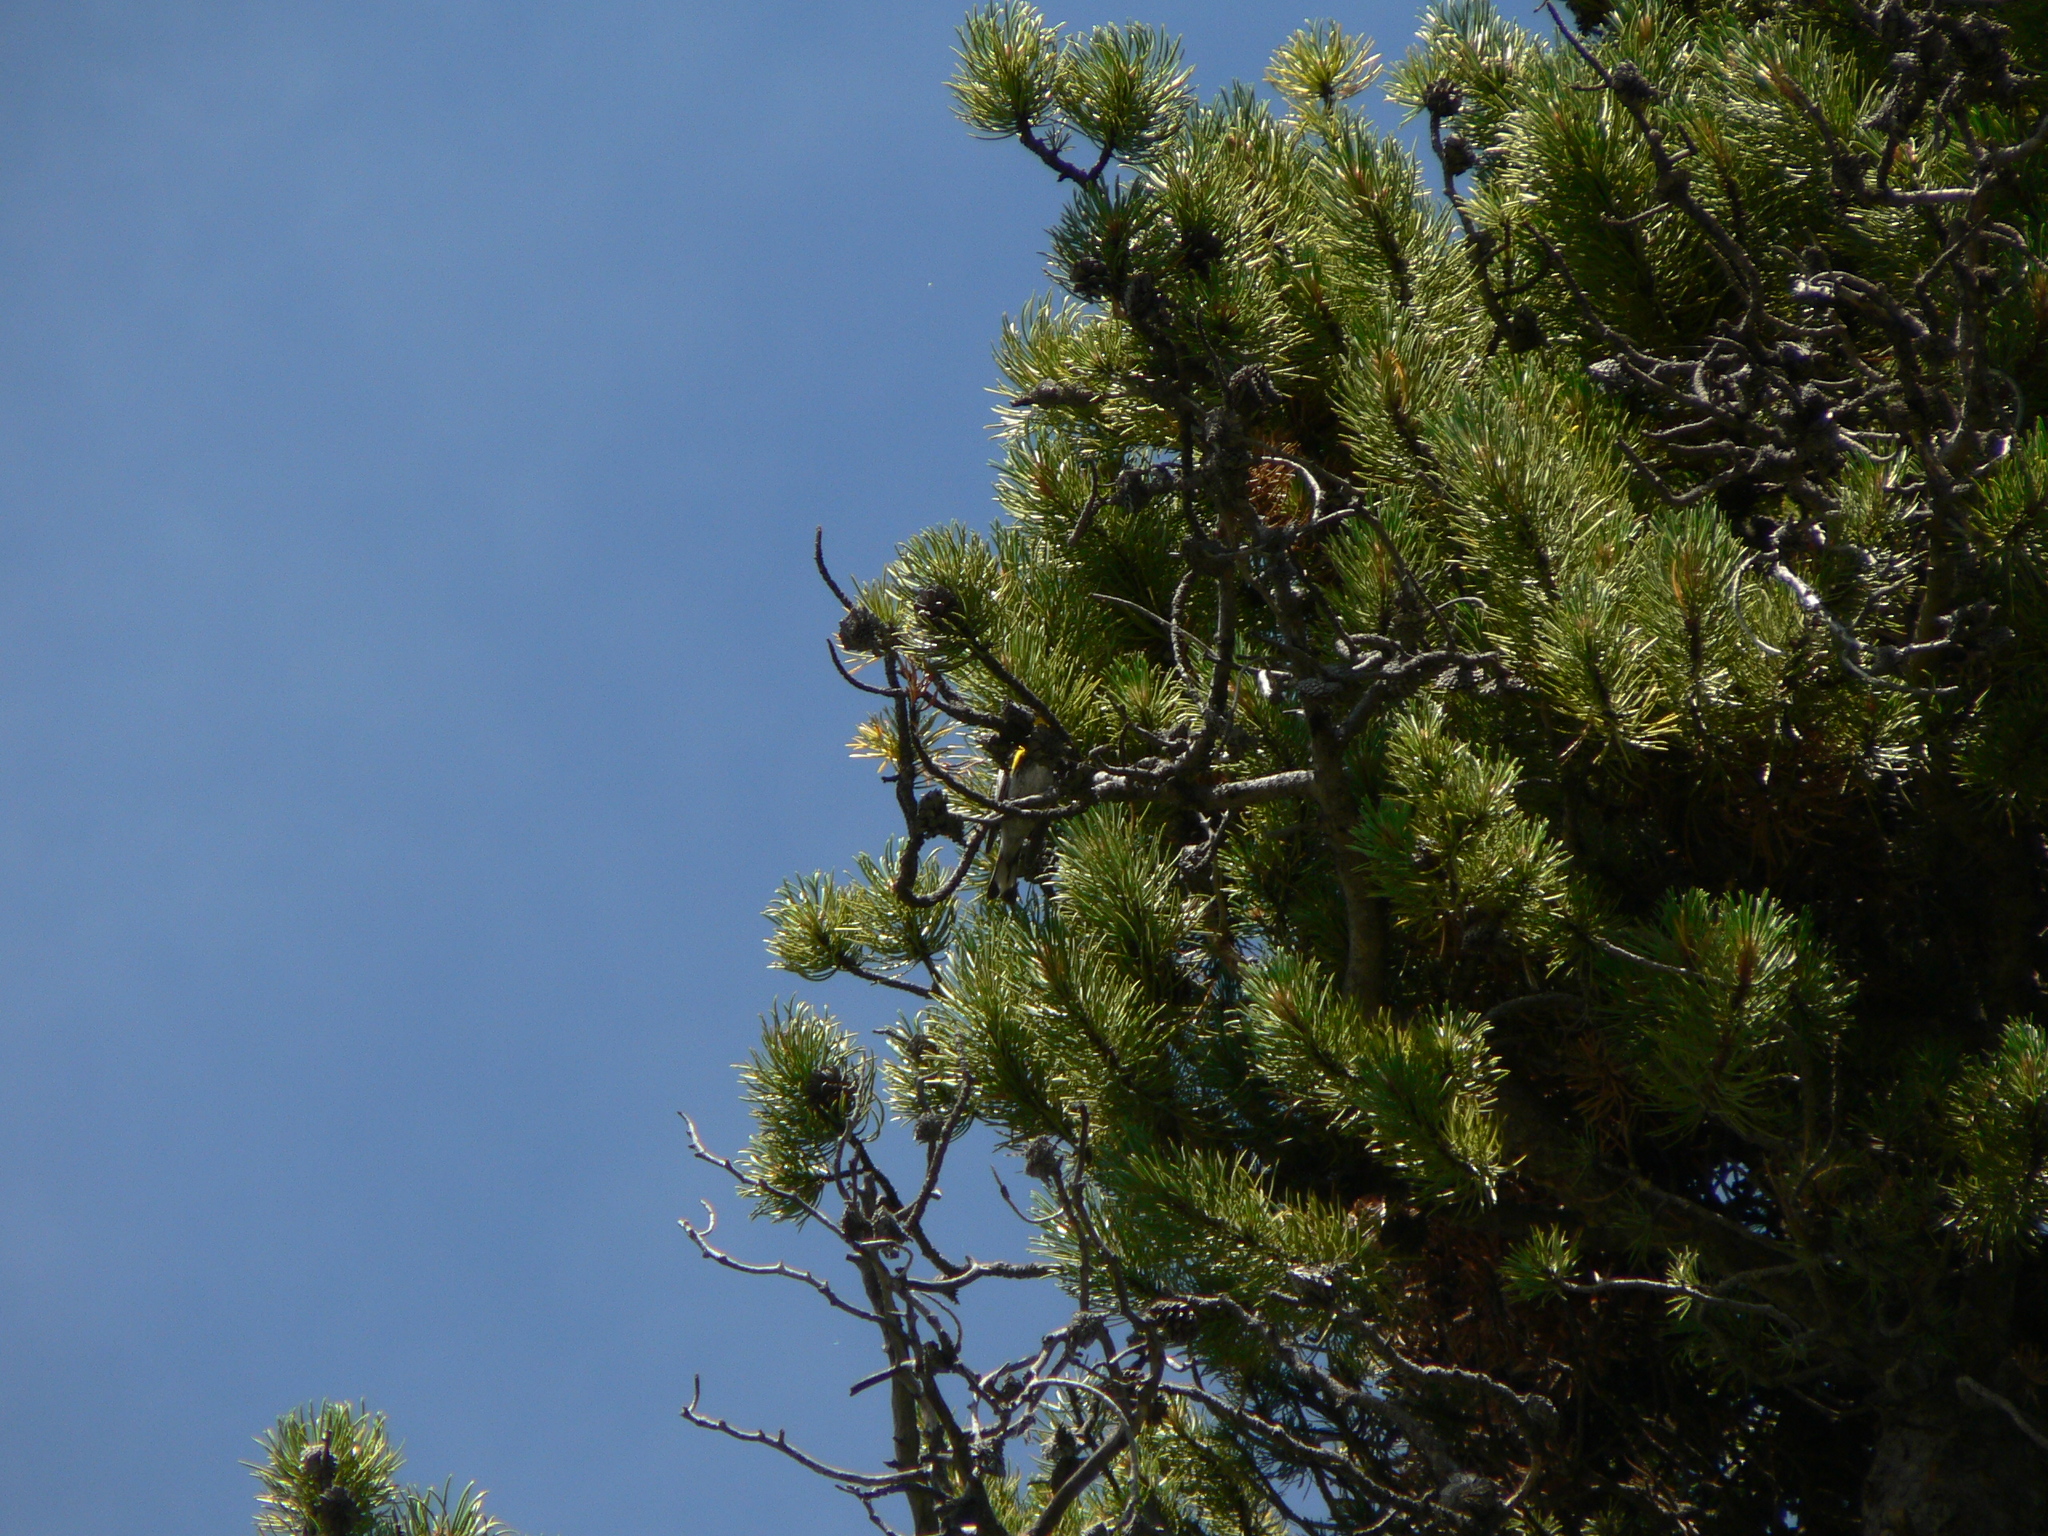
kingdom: Animalia
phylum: Chordata
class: Aves
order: Passeriformes
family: Parulidae
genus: Setophaga
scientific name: Setophaga coronata
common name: Myrtle warbler
